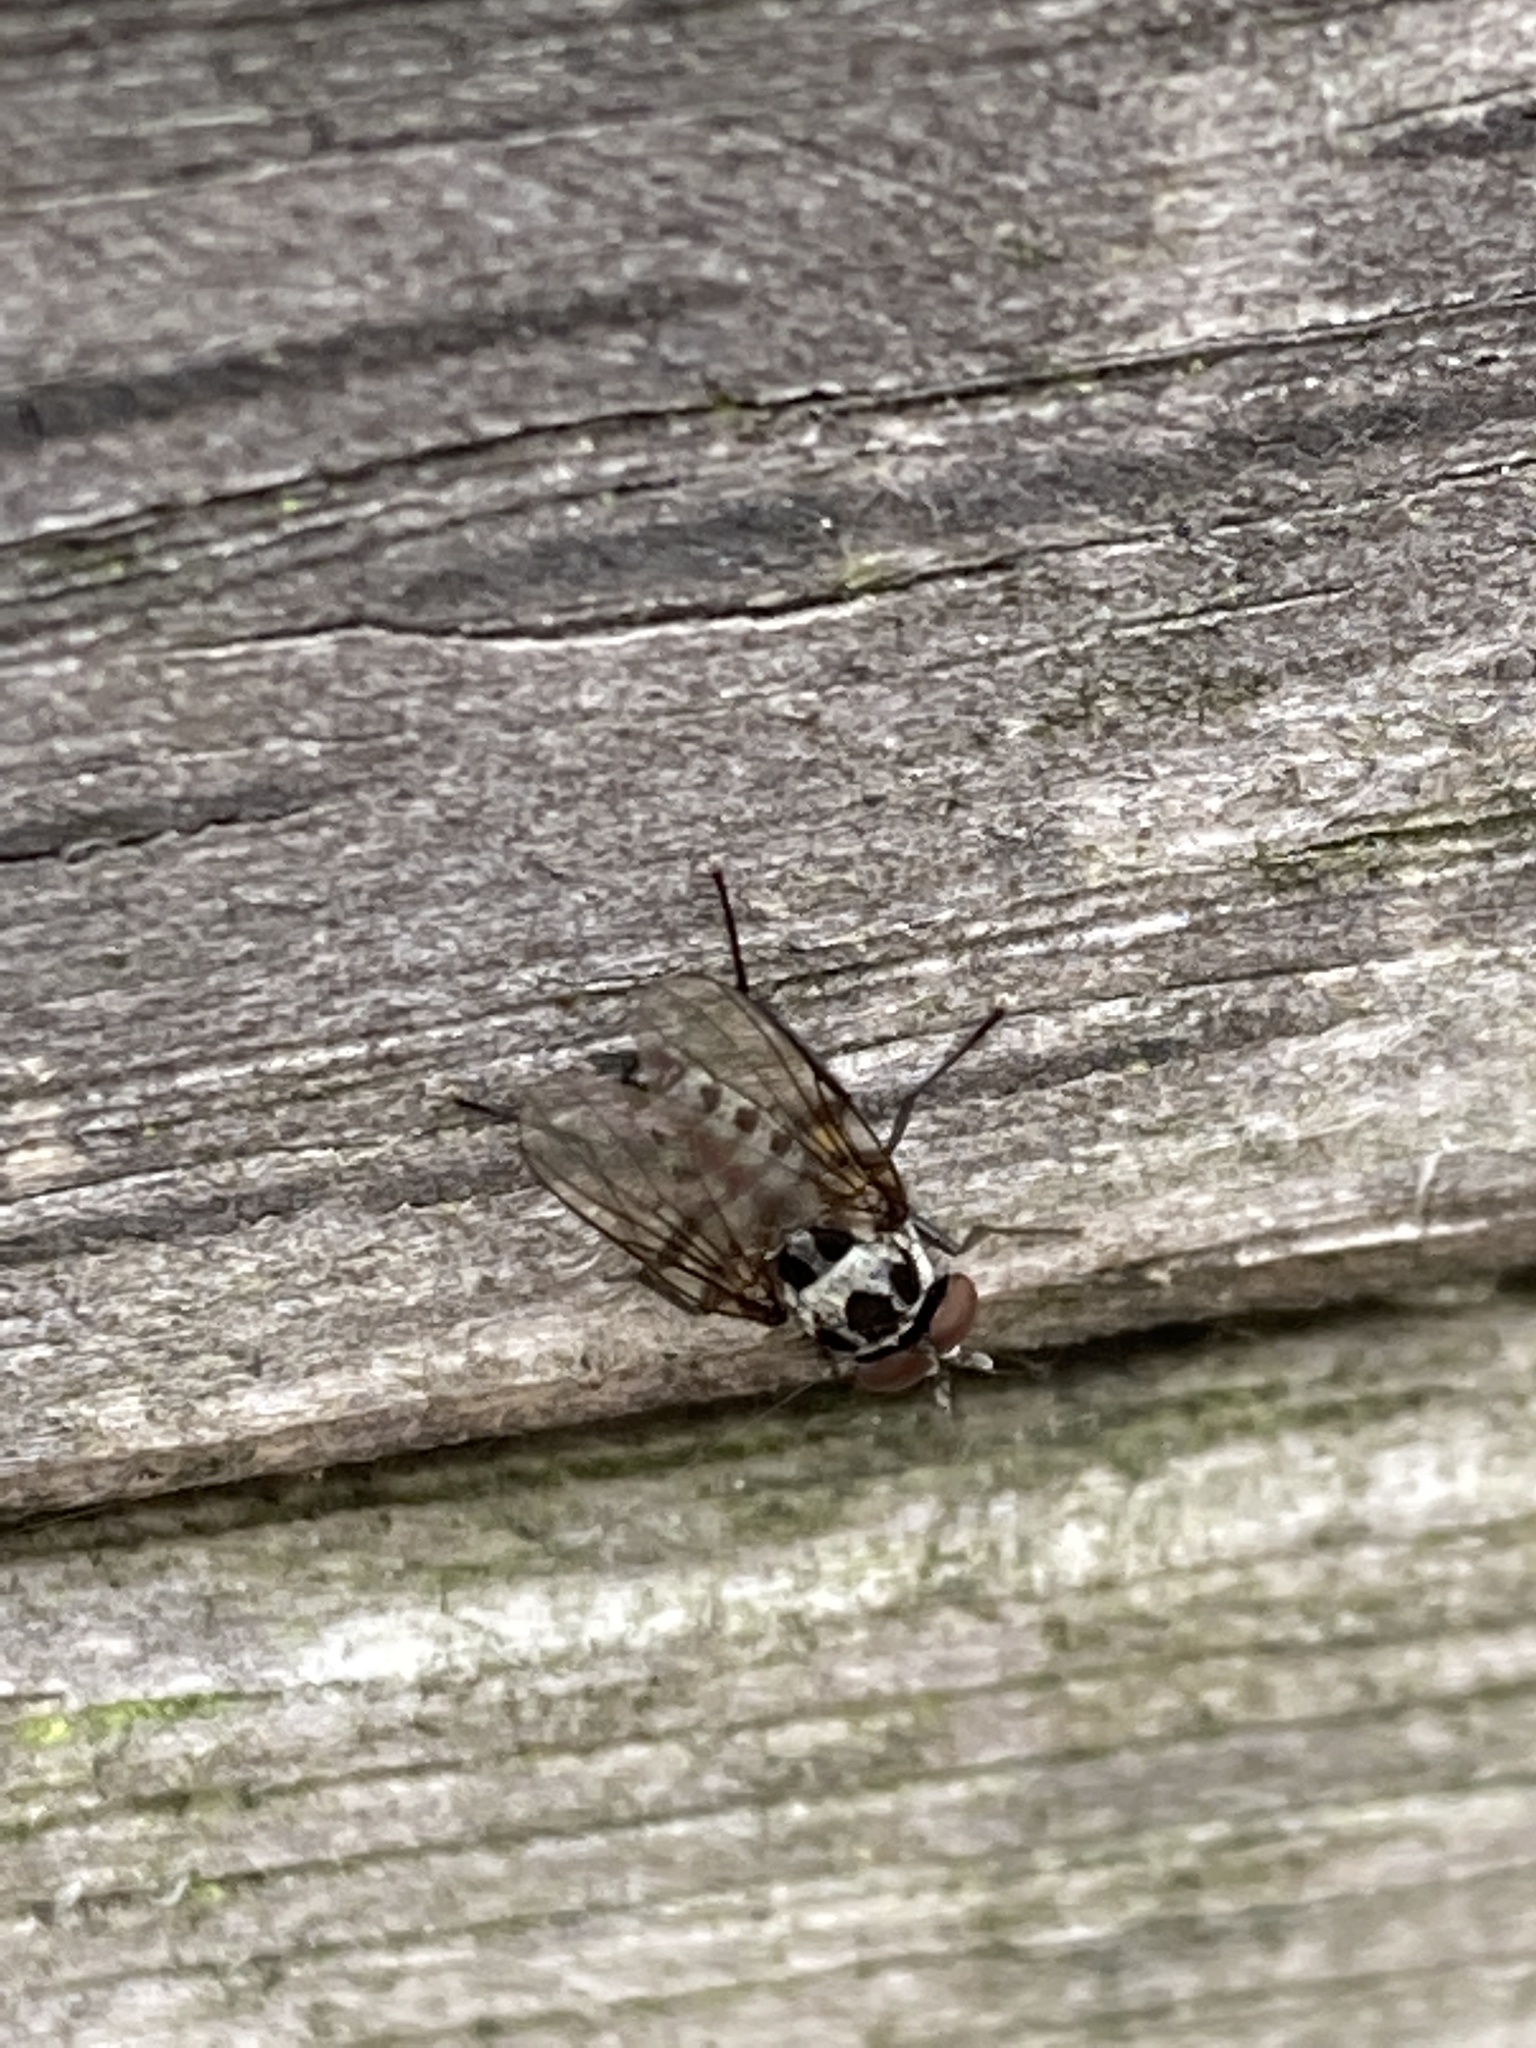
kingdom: Animalia
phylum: Arthropoda
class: Insecta
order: Diptera
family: Anthomyiidae
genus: Anthomyia
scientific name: Anthomyia pluvialis
